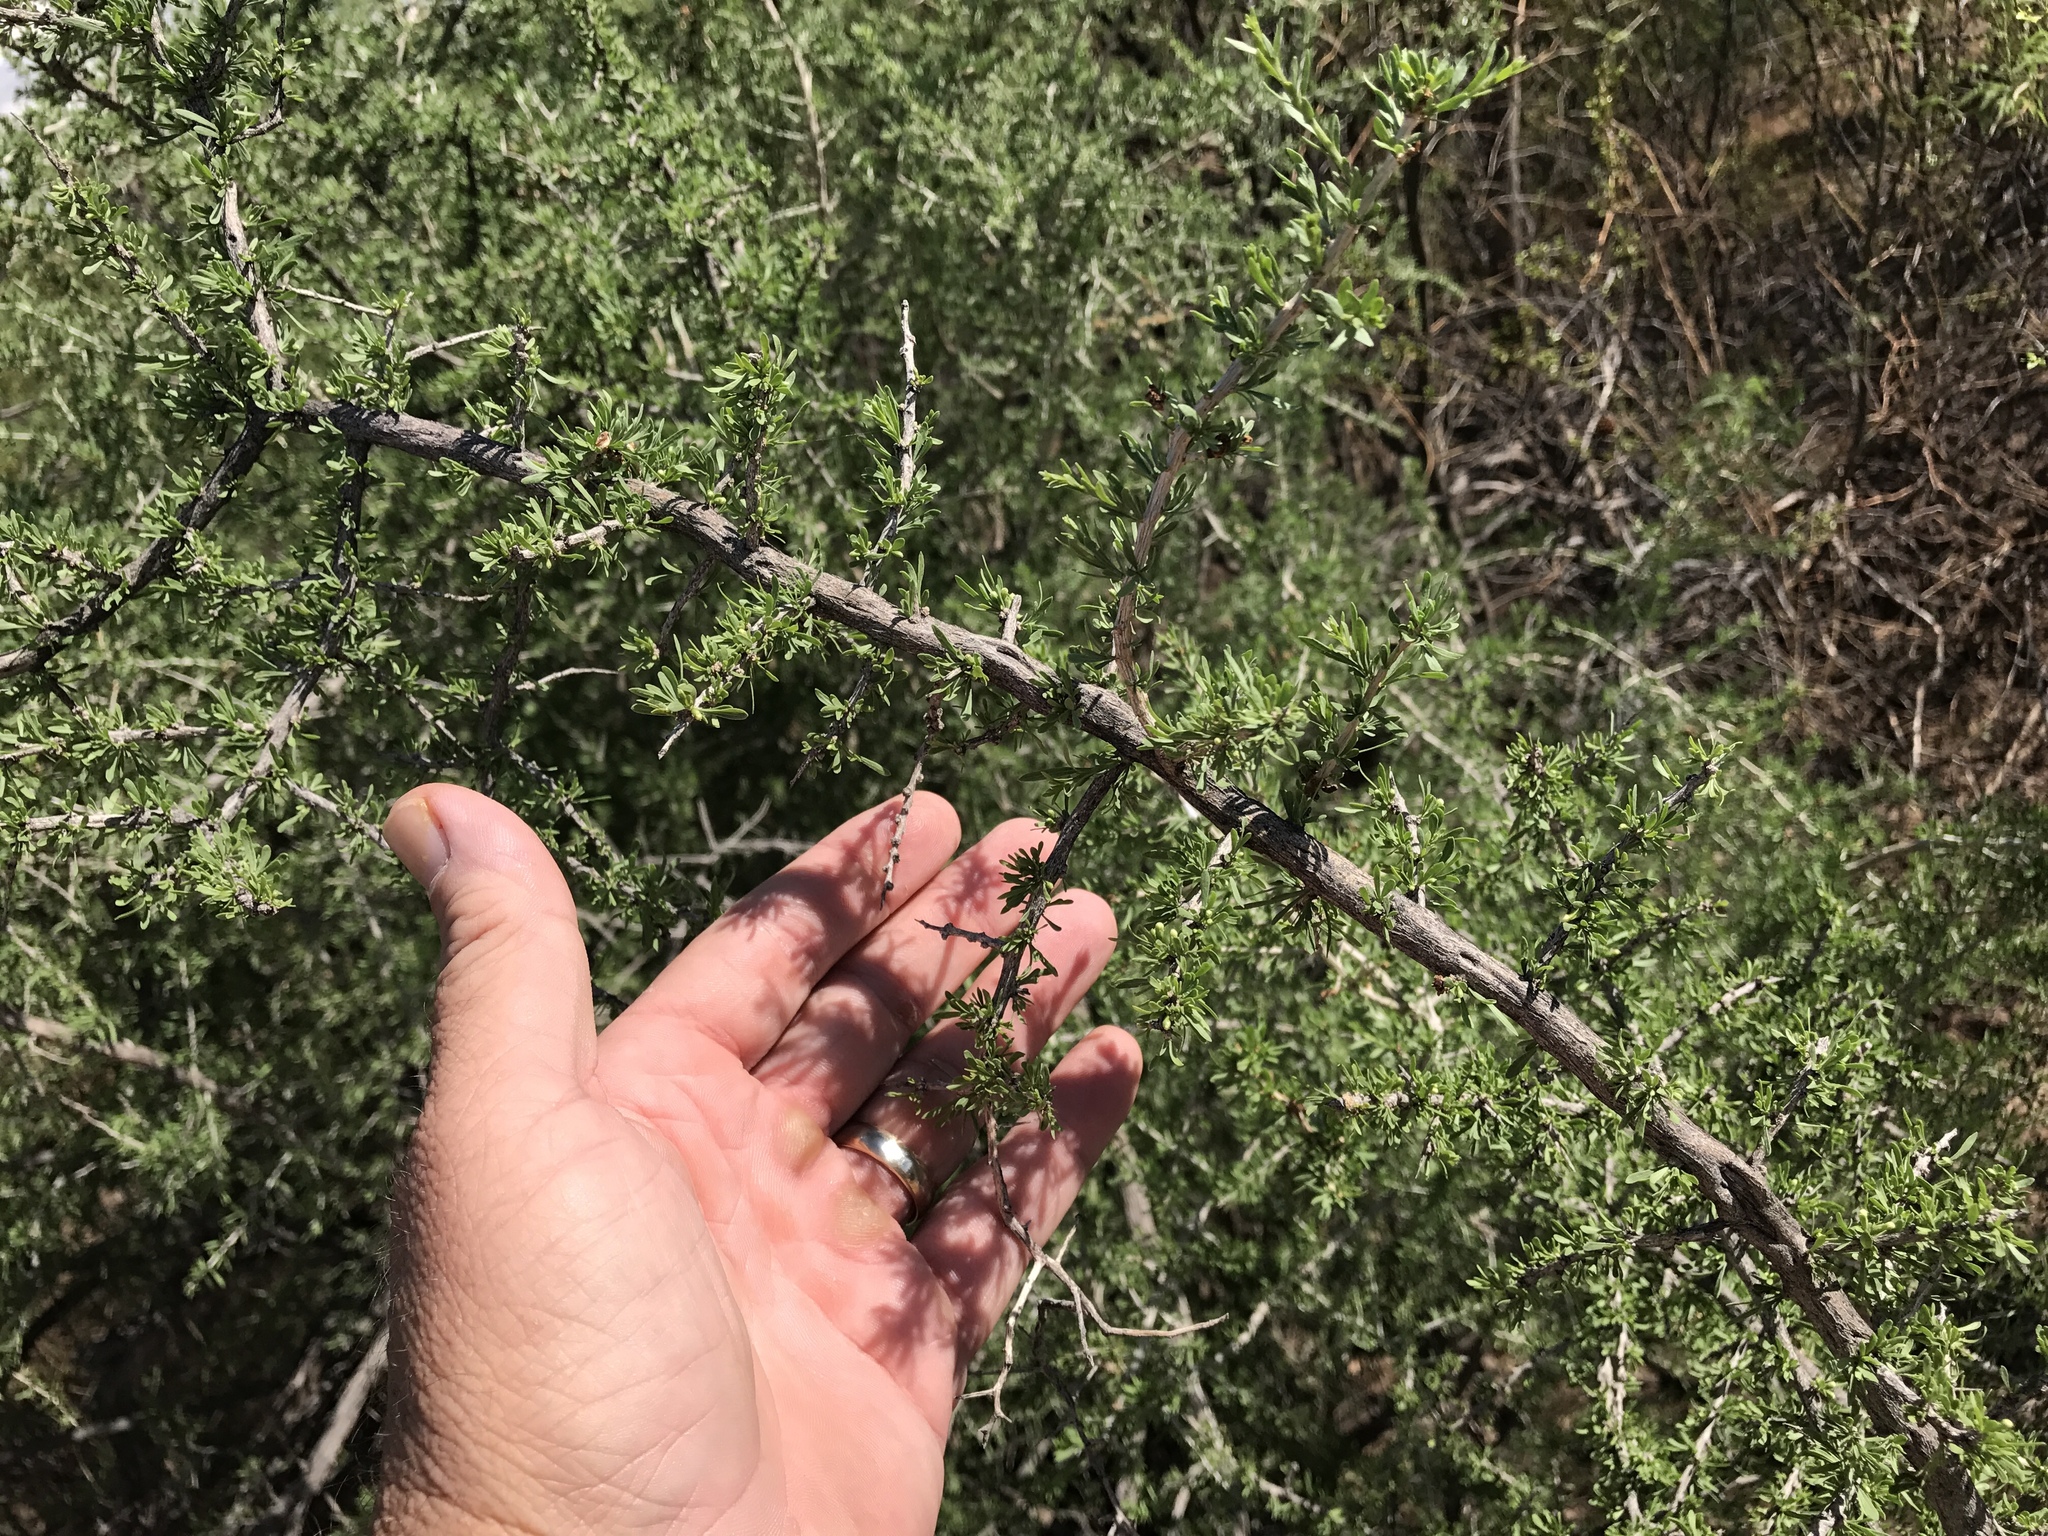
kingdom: Plantae
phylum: Tracheophyta
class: Magnoliopsida
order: Solanales
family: Solanaceae
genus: Lycium
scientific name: Lycium berlandieri
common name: Berlandier wolfberry
